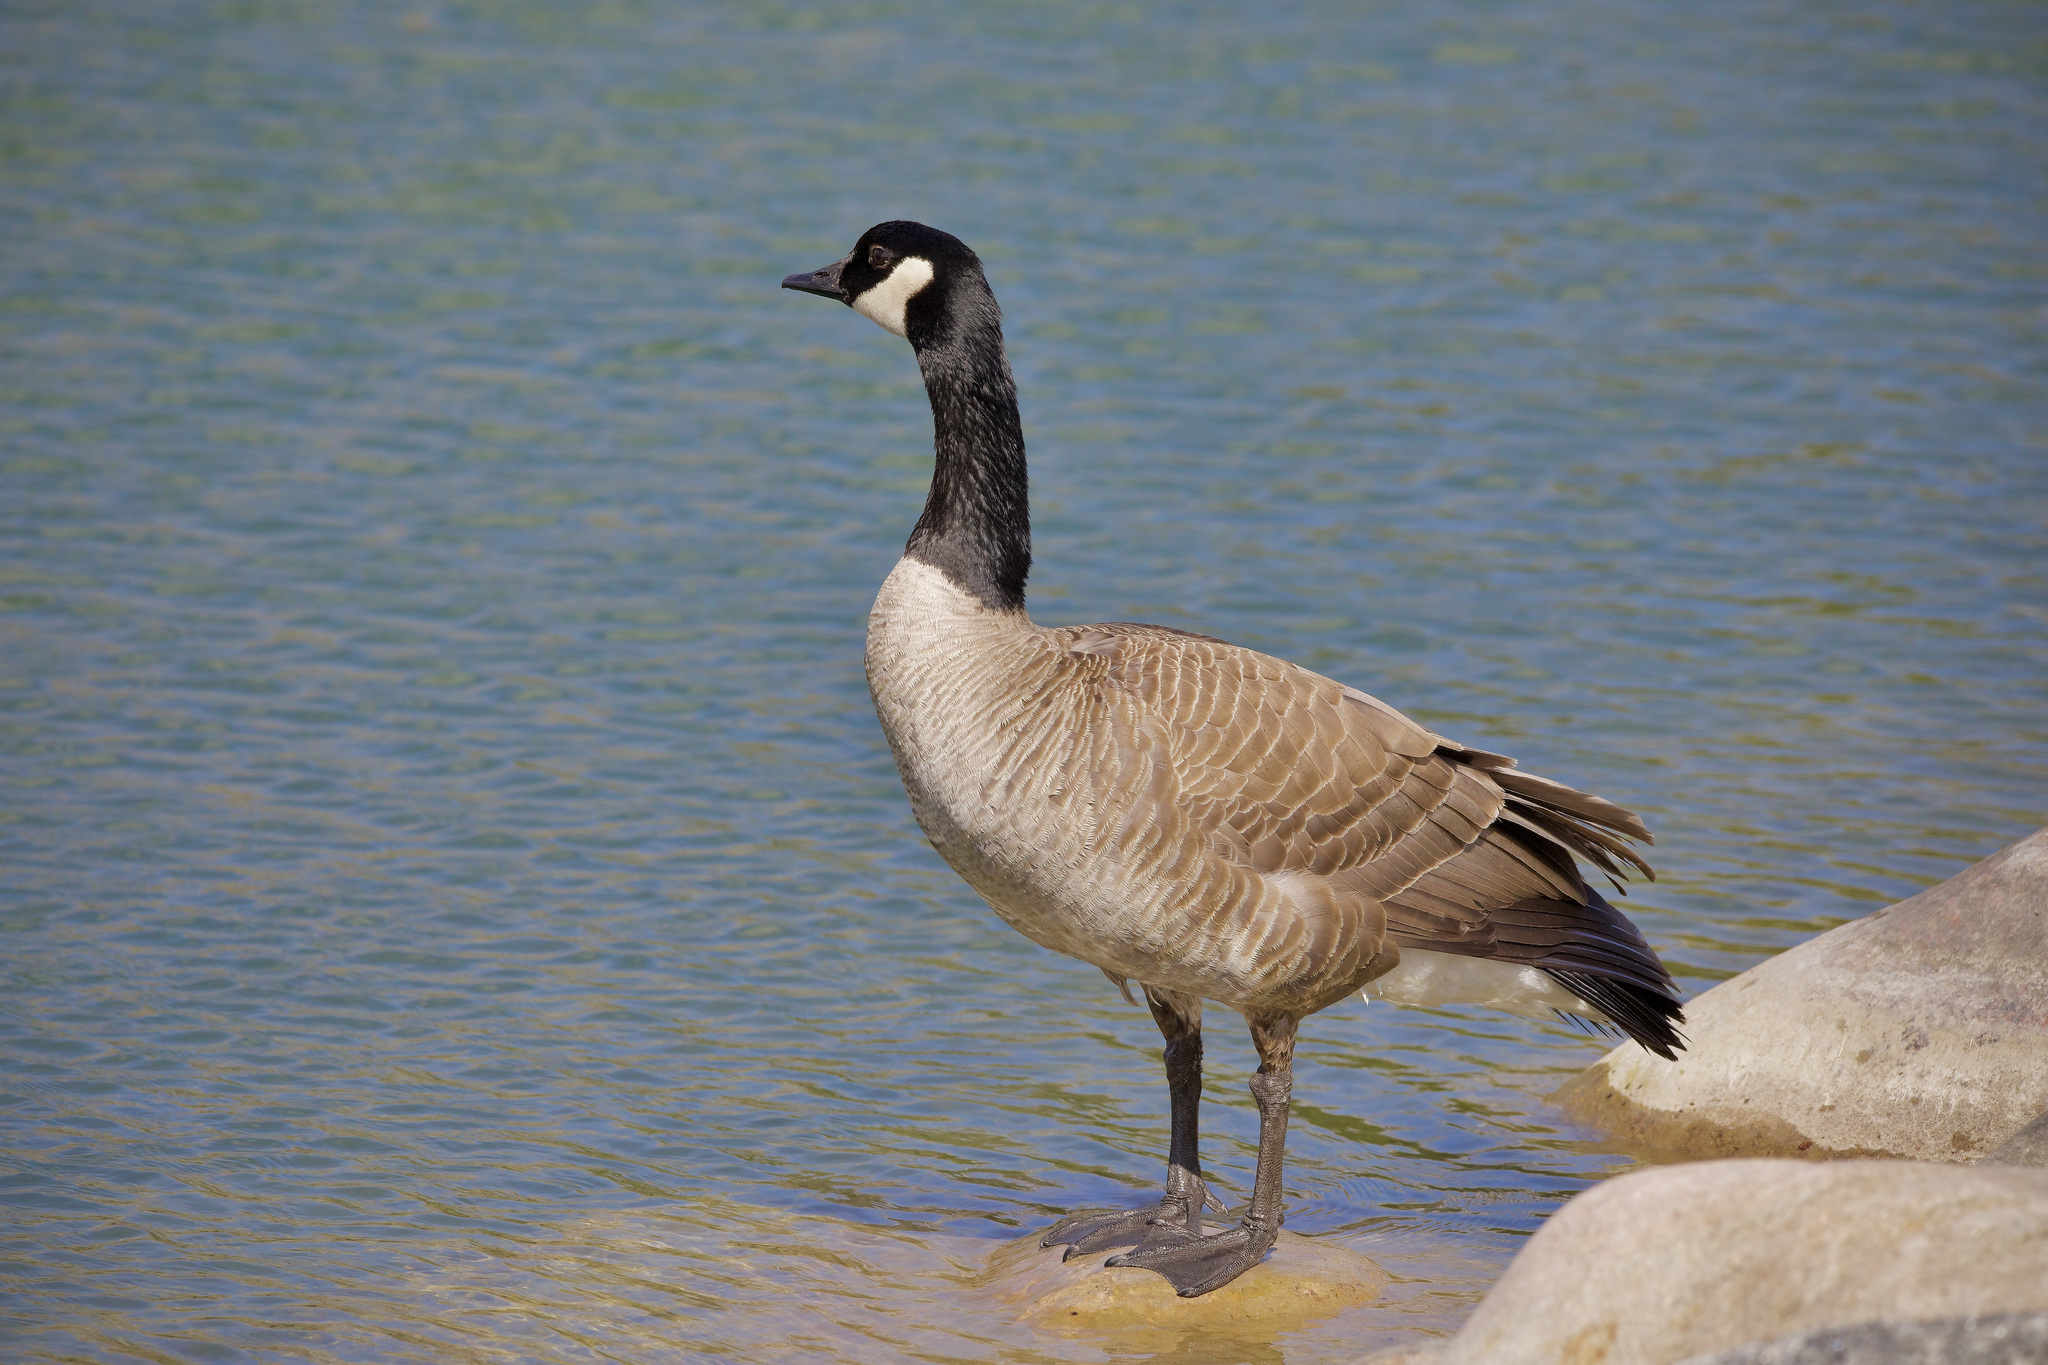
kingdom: Animalia
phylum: Chordata
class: Aves
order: Anseriformes
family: Anatidae
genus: Branta
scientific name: Branta canadensis
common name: Canada goose
